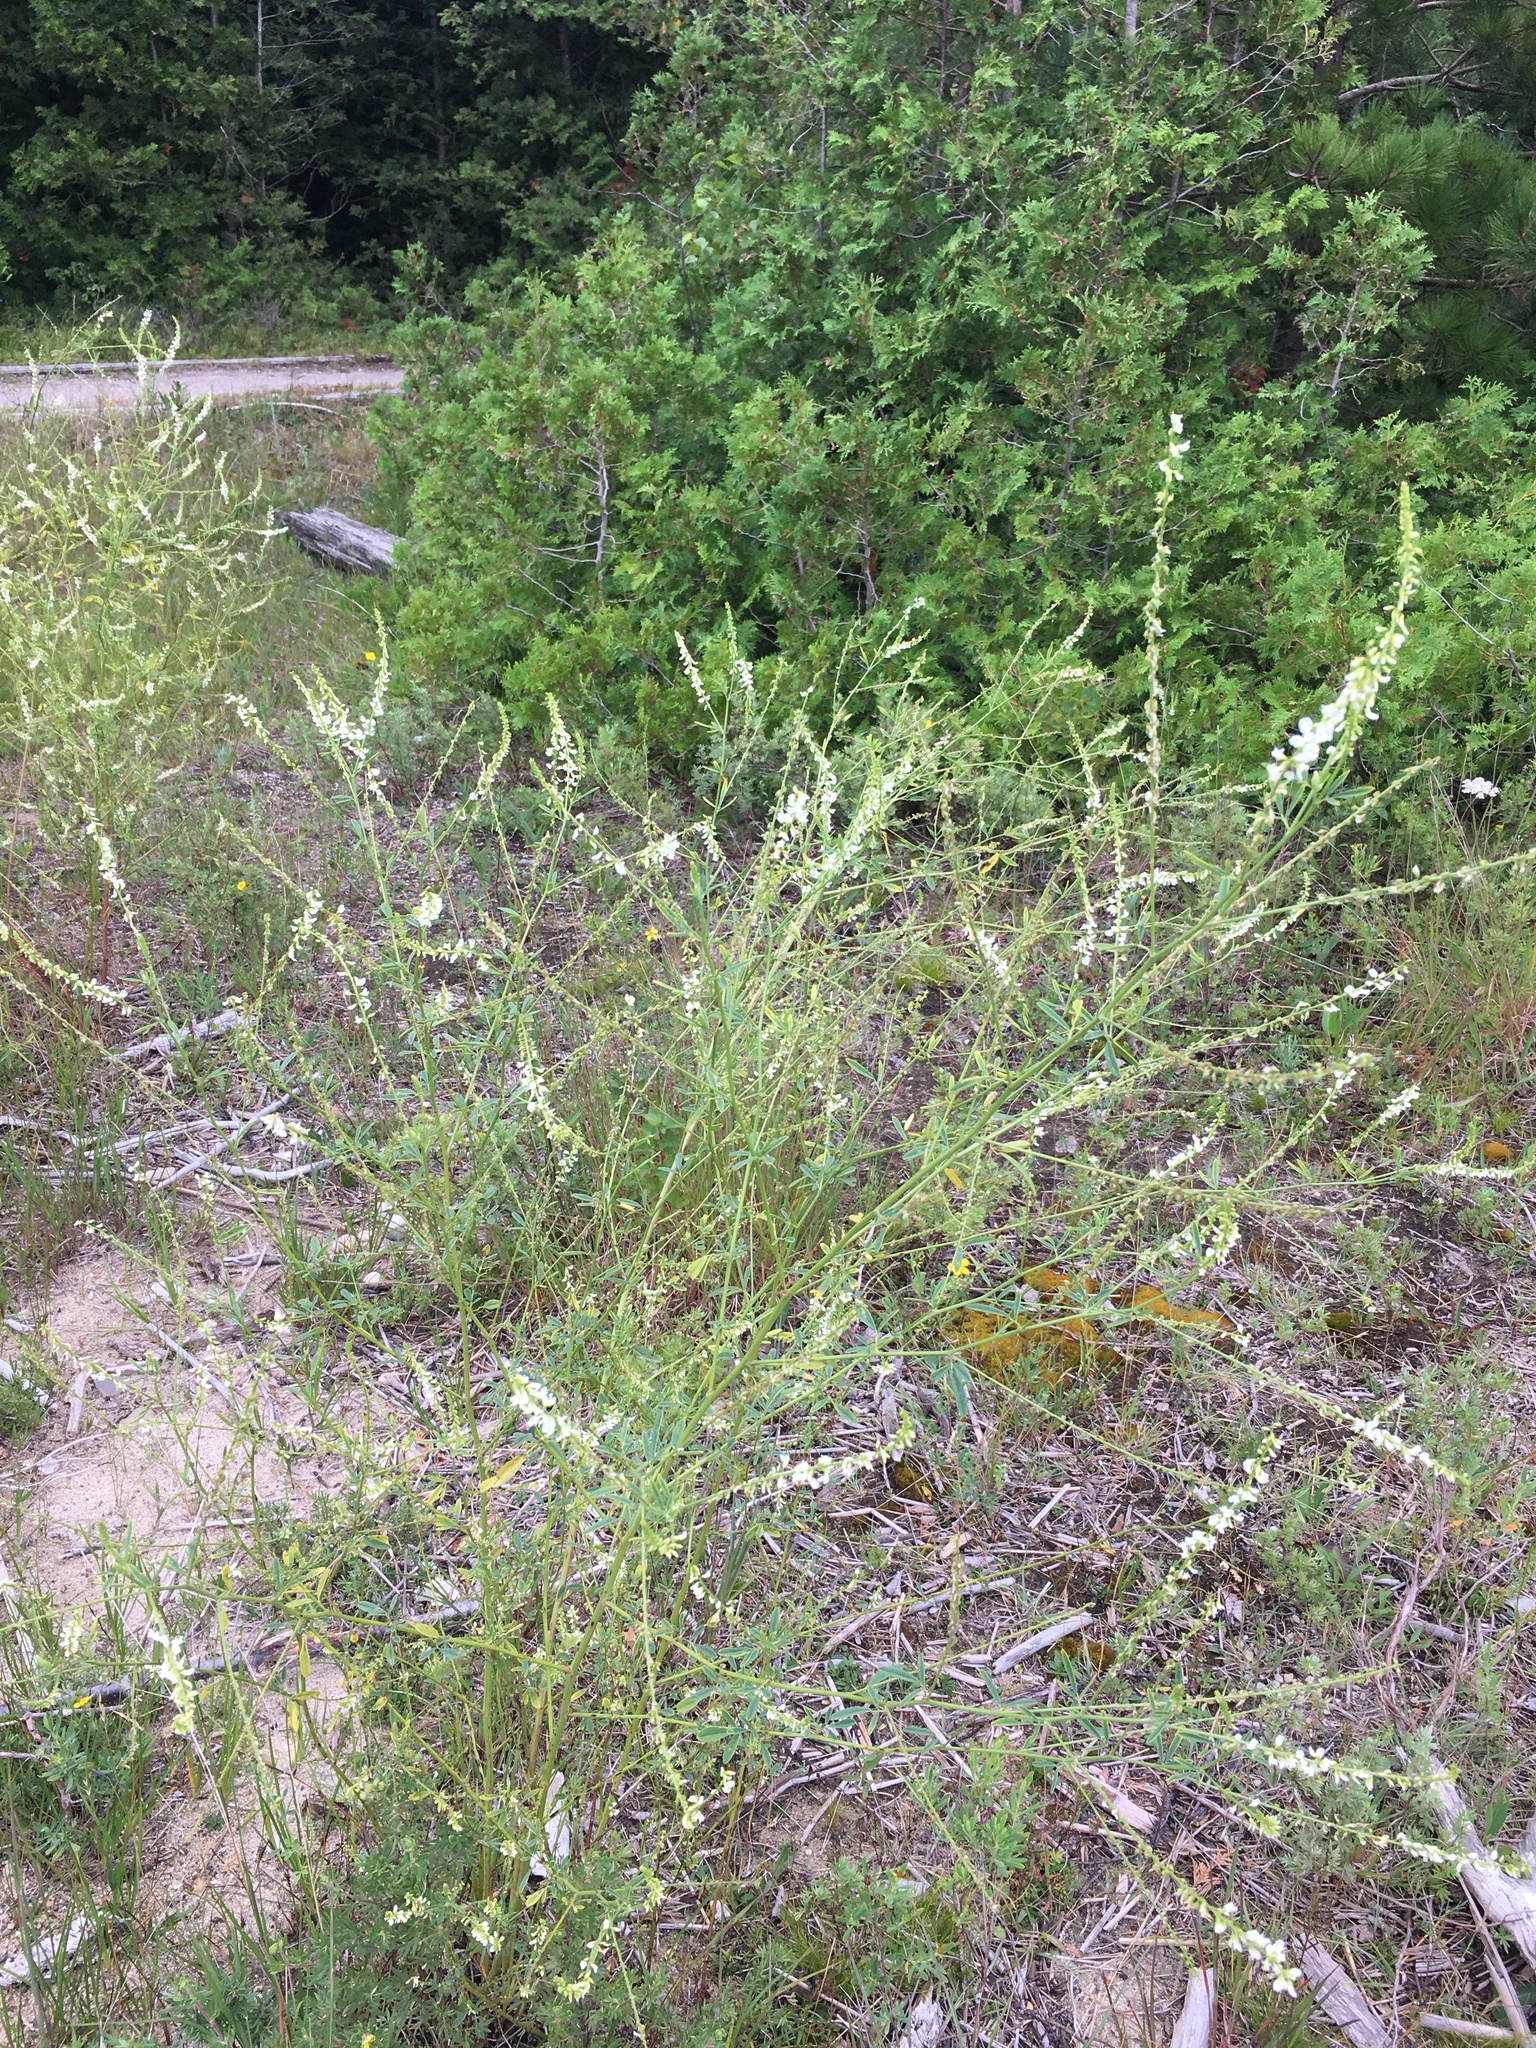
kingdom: Plantae
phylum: Tracheophyta
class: Magnoliopsida
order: Fabales
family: Fabaceae
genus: Melilotus
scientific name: Melilotus albus
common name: White melilot
